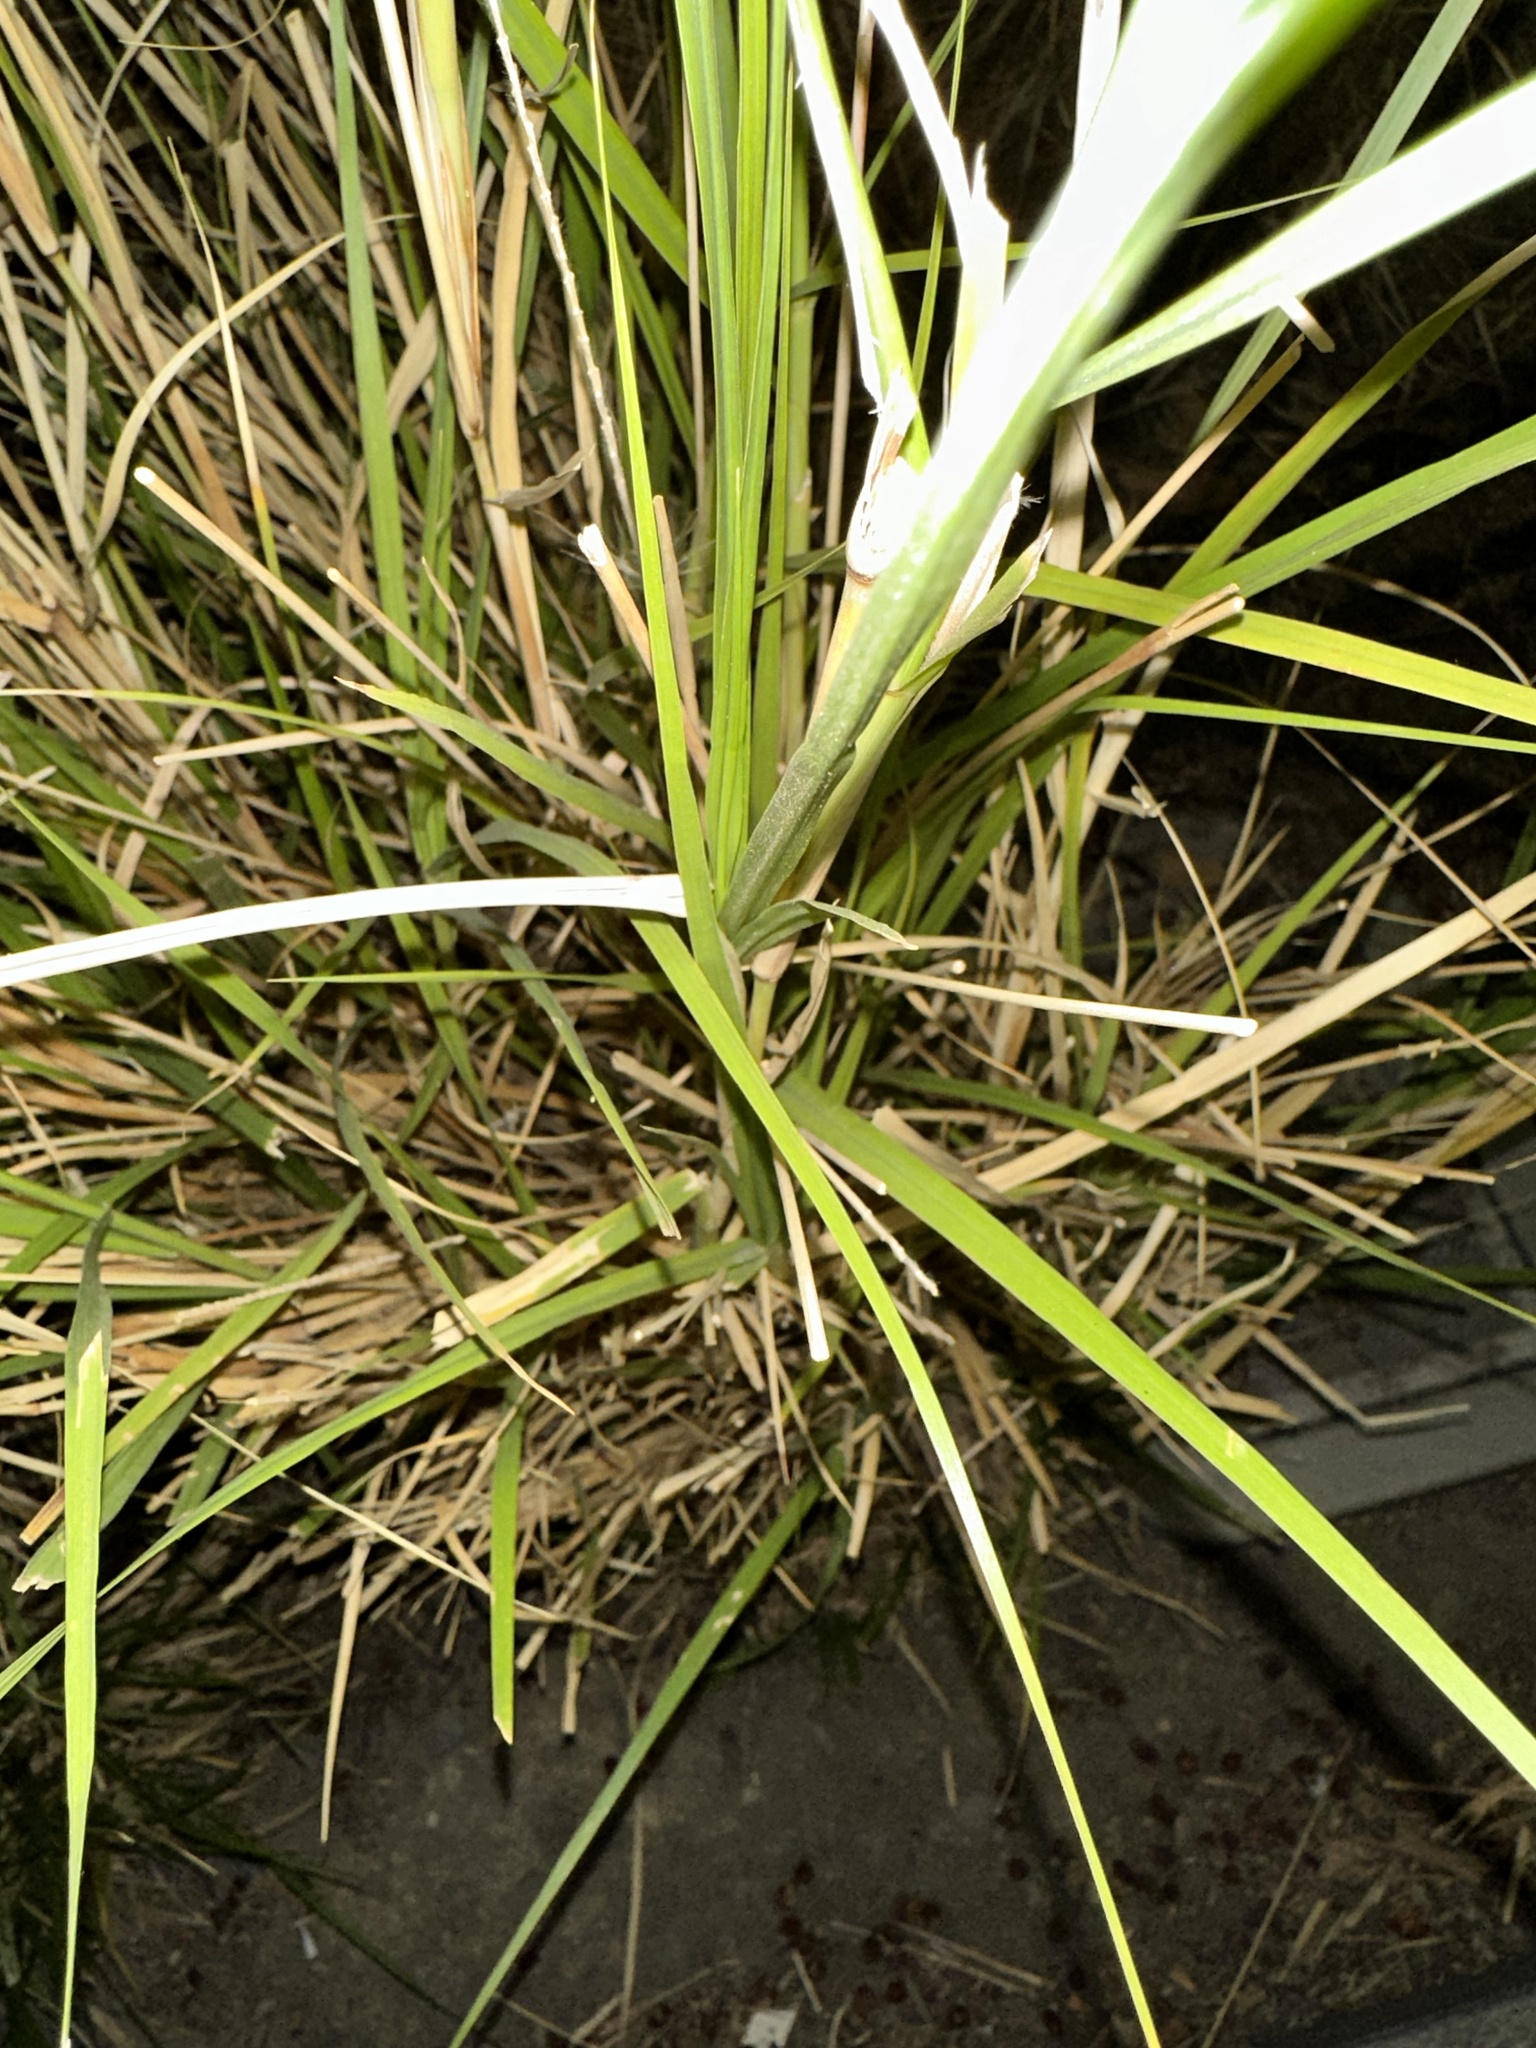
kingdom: Plantae
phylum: Tracheophyta
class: Liliopsida
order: Poales
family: Poaceae
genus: Cenchrus
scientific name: Cenchrus setaceus
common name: Crimson fountaingrass
